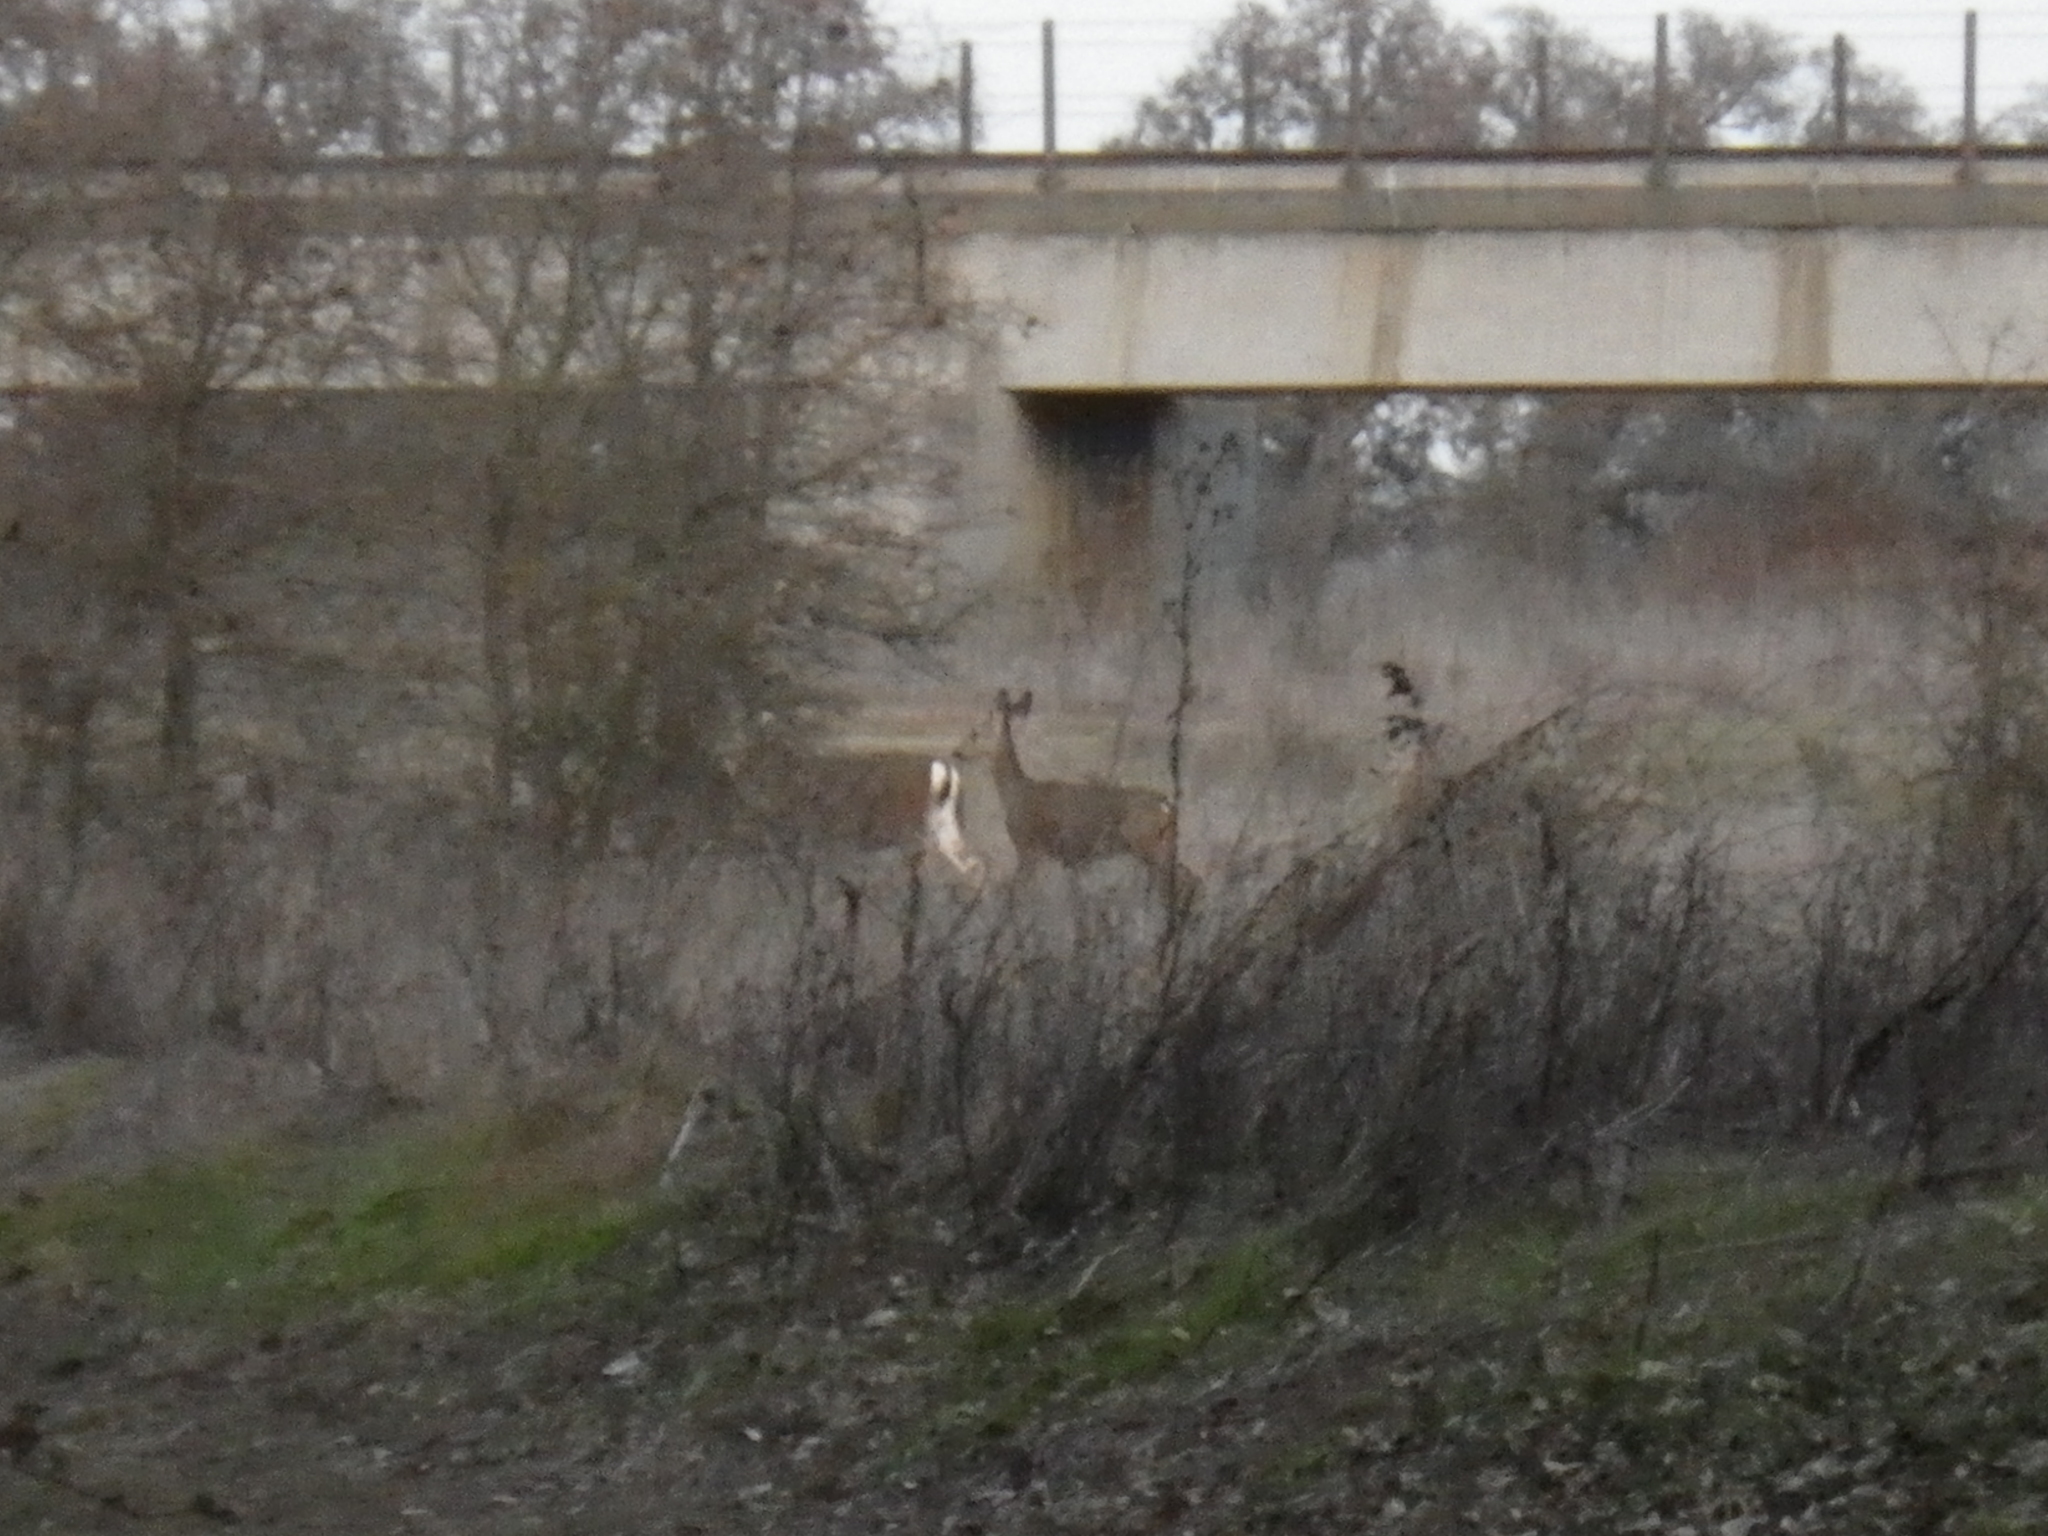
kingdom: Animalia
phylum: Chordata
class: Mammalia
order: Artiodactyla
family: Cervidae
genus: Odocoileus
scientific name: Odocoileus hemionus
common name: Mule deer
